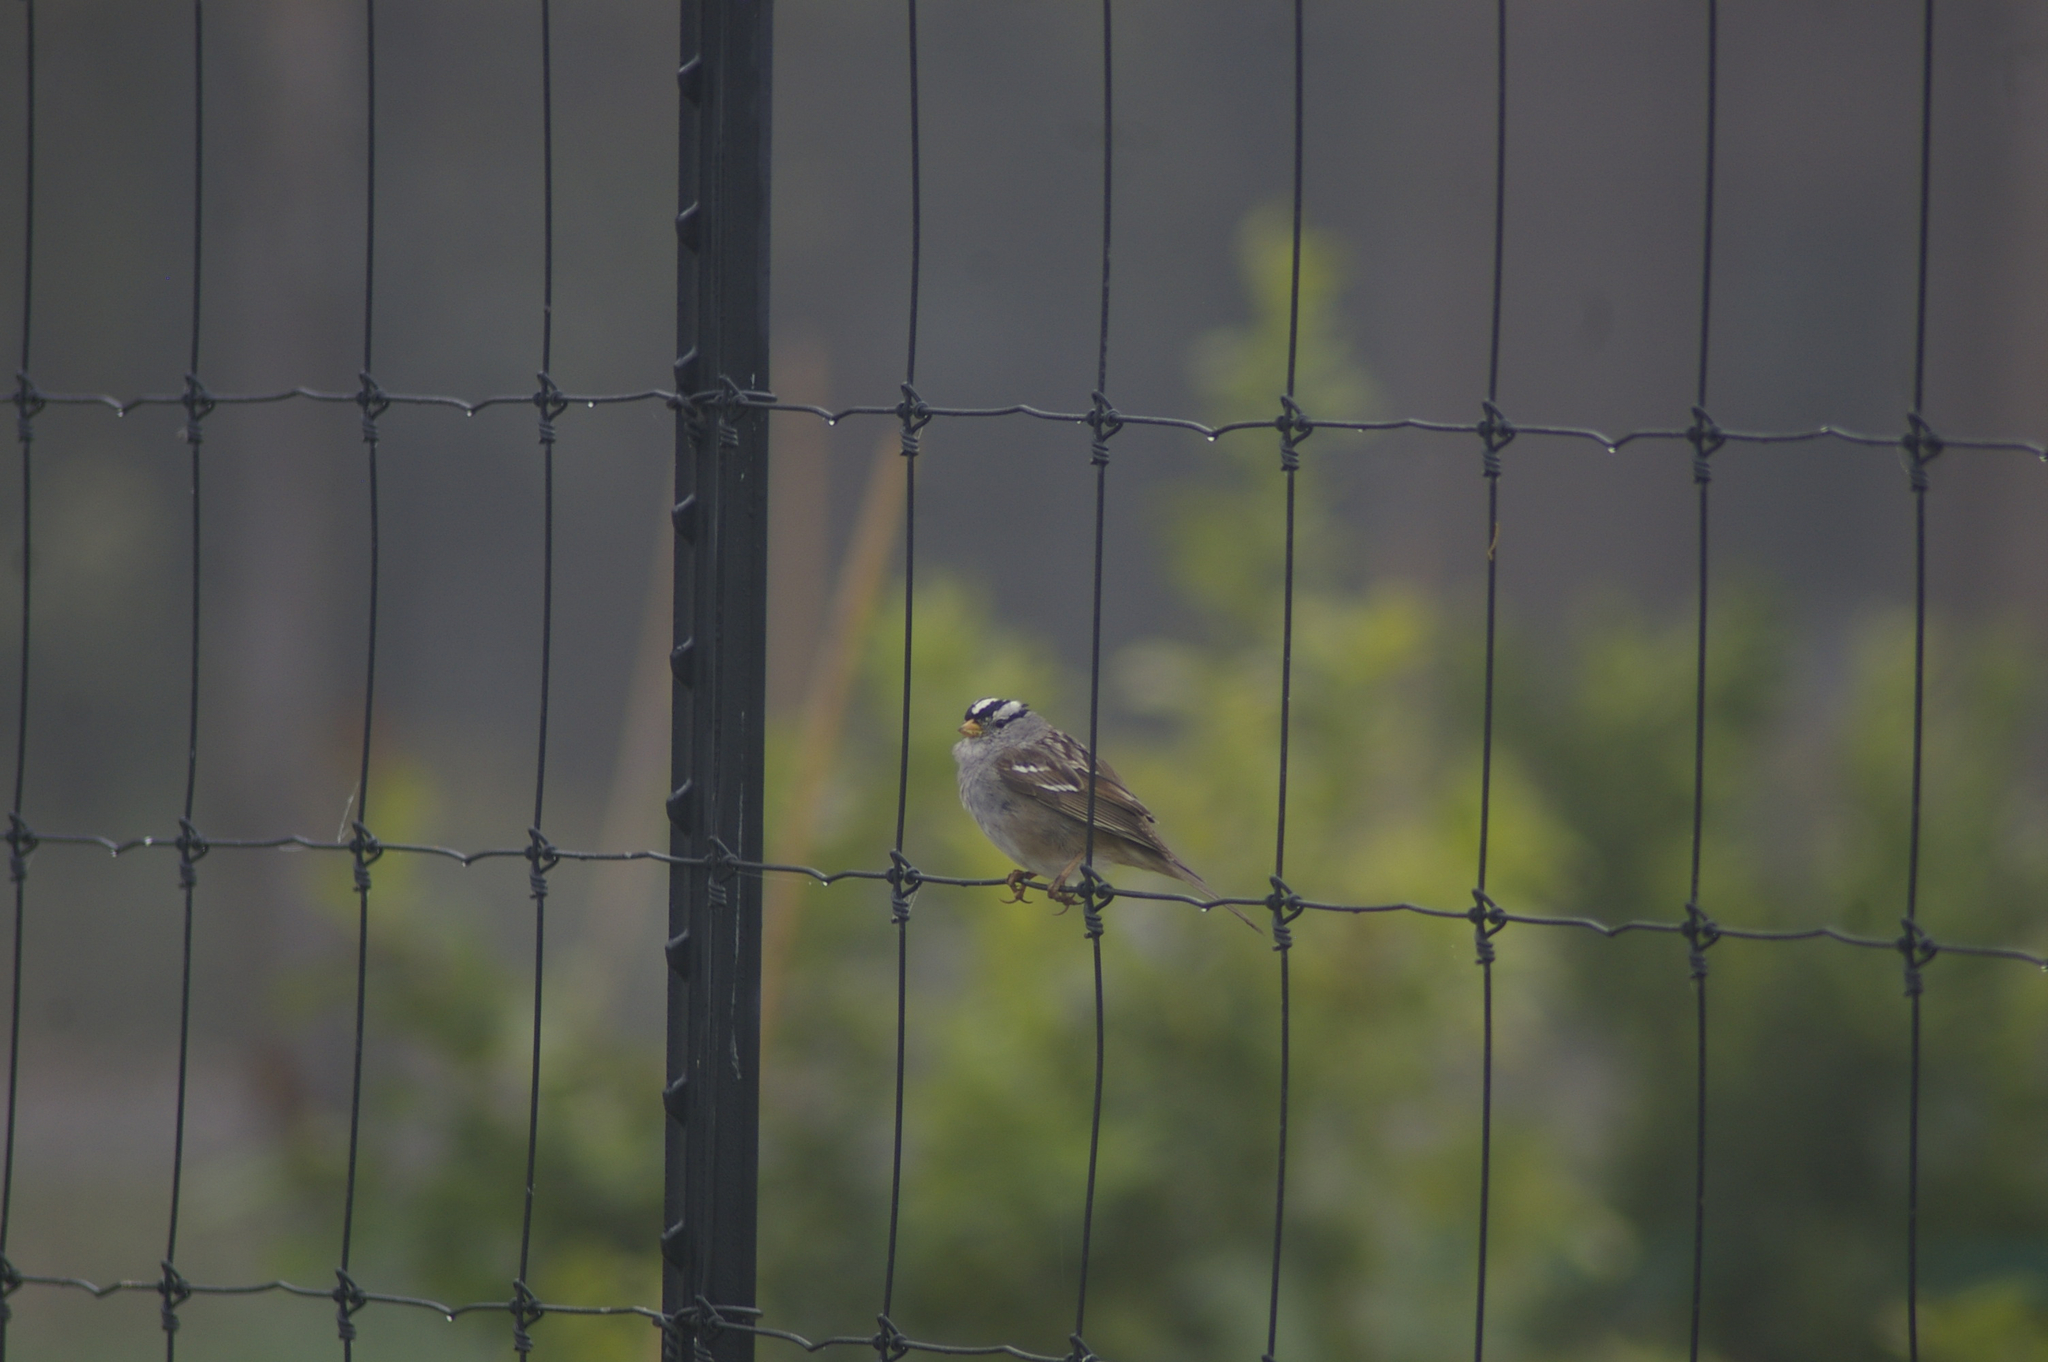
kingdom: Animalia
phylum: Chordata
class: Aves
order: Passeriformes
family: Passerellidae
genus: Zonotrichia
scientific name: Zonotrichia leucophrys
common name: White-crowned sparrow
